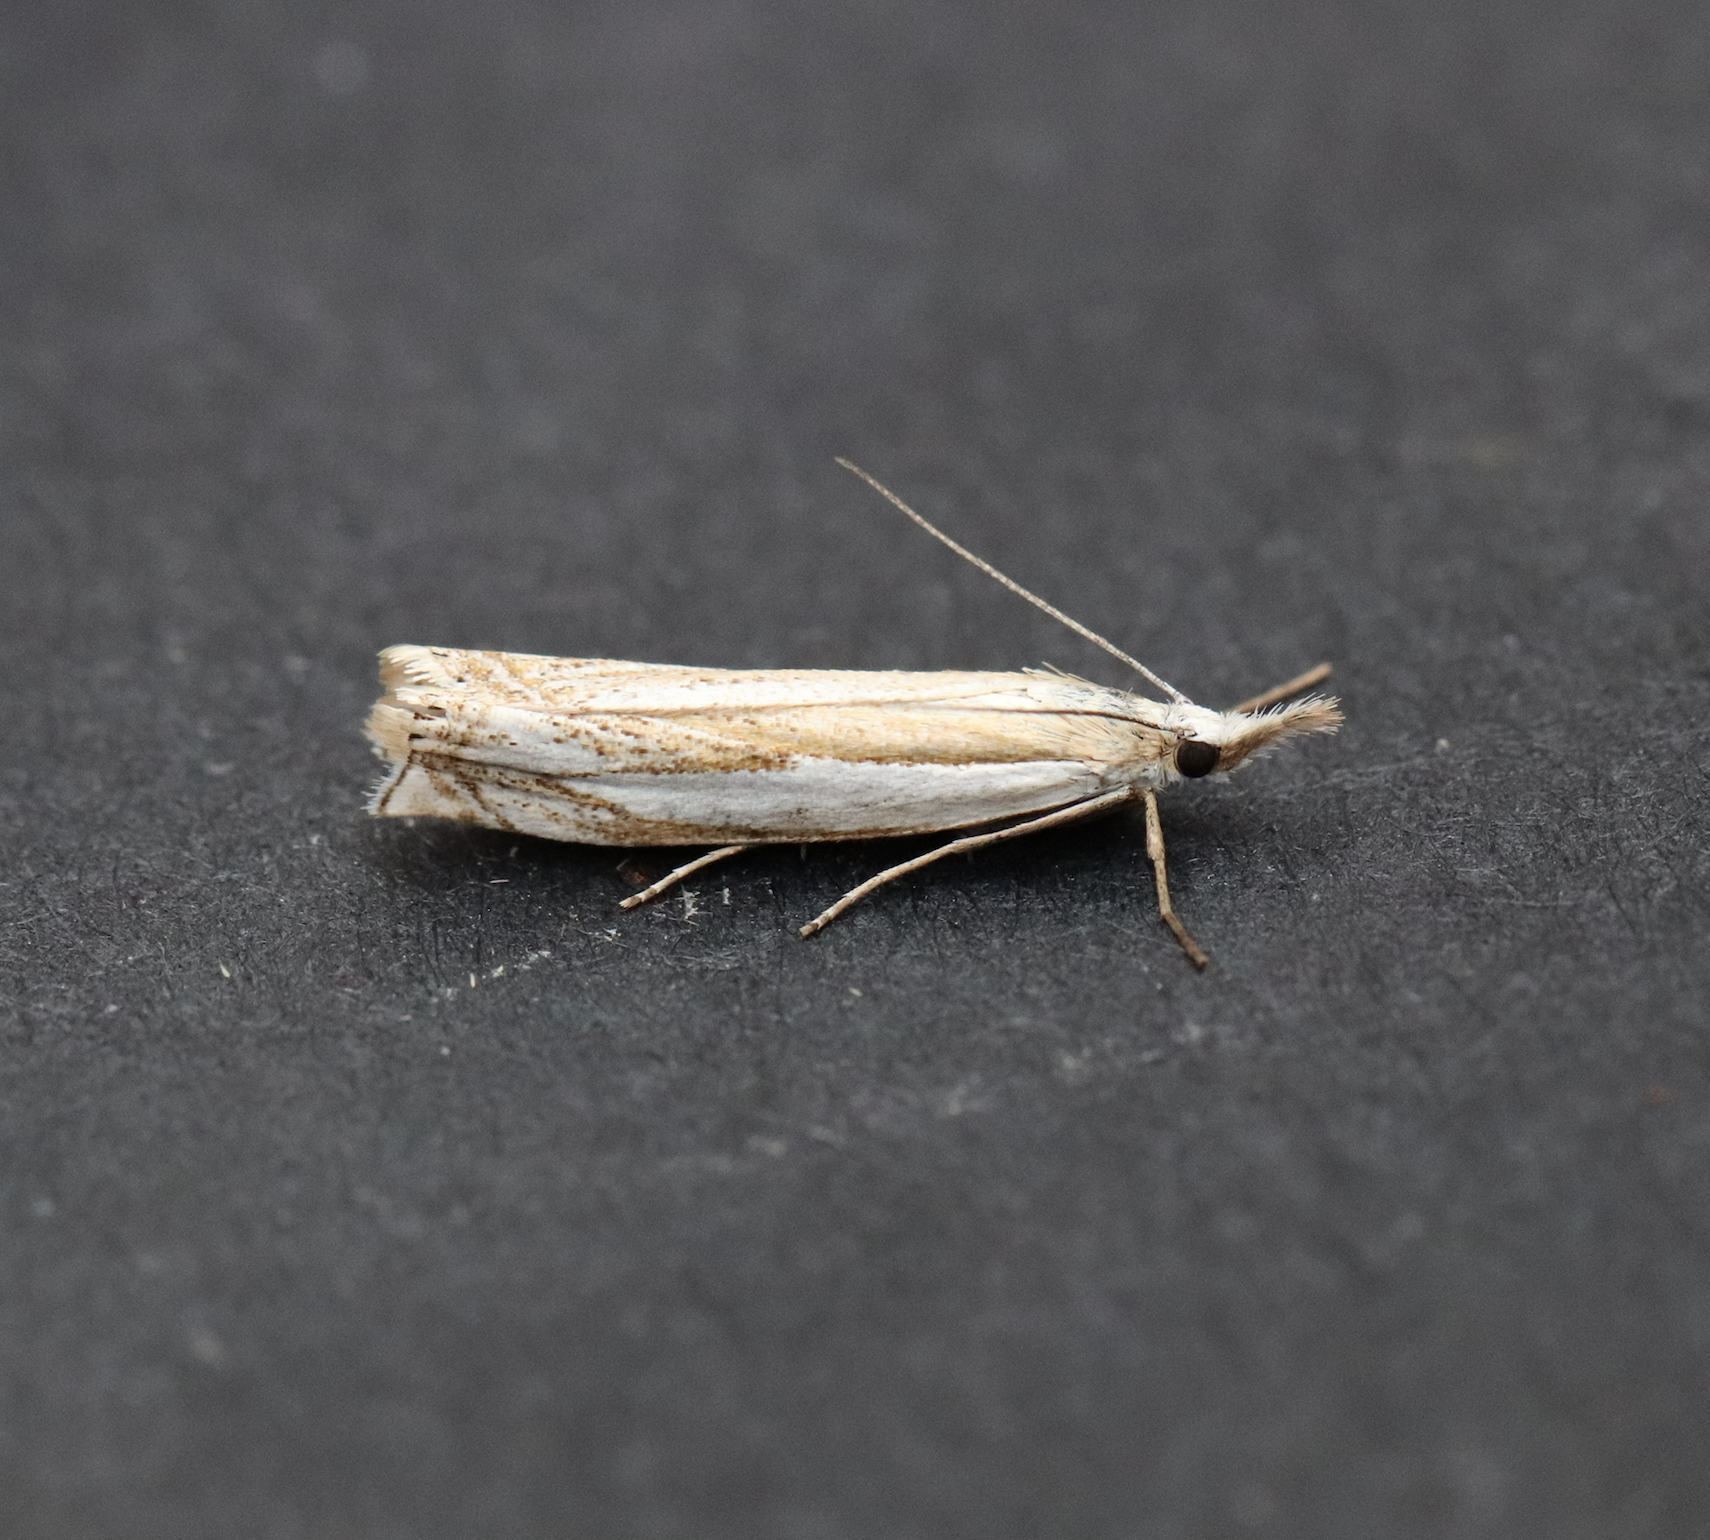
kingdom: Animalia
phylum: Arthropoda
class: Insecta
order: Lepidoptera
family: Crambidae
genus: Crambus
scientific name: Crambus pascuella
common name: Inlaid grass-veneer
